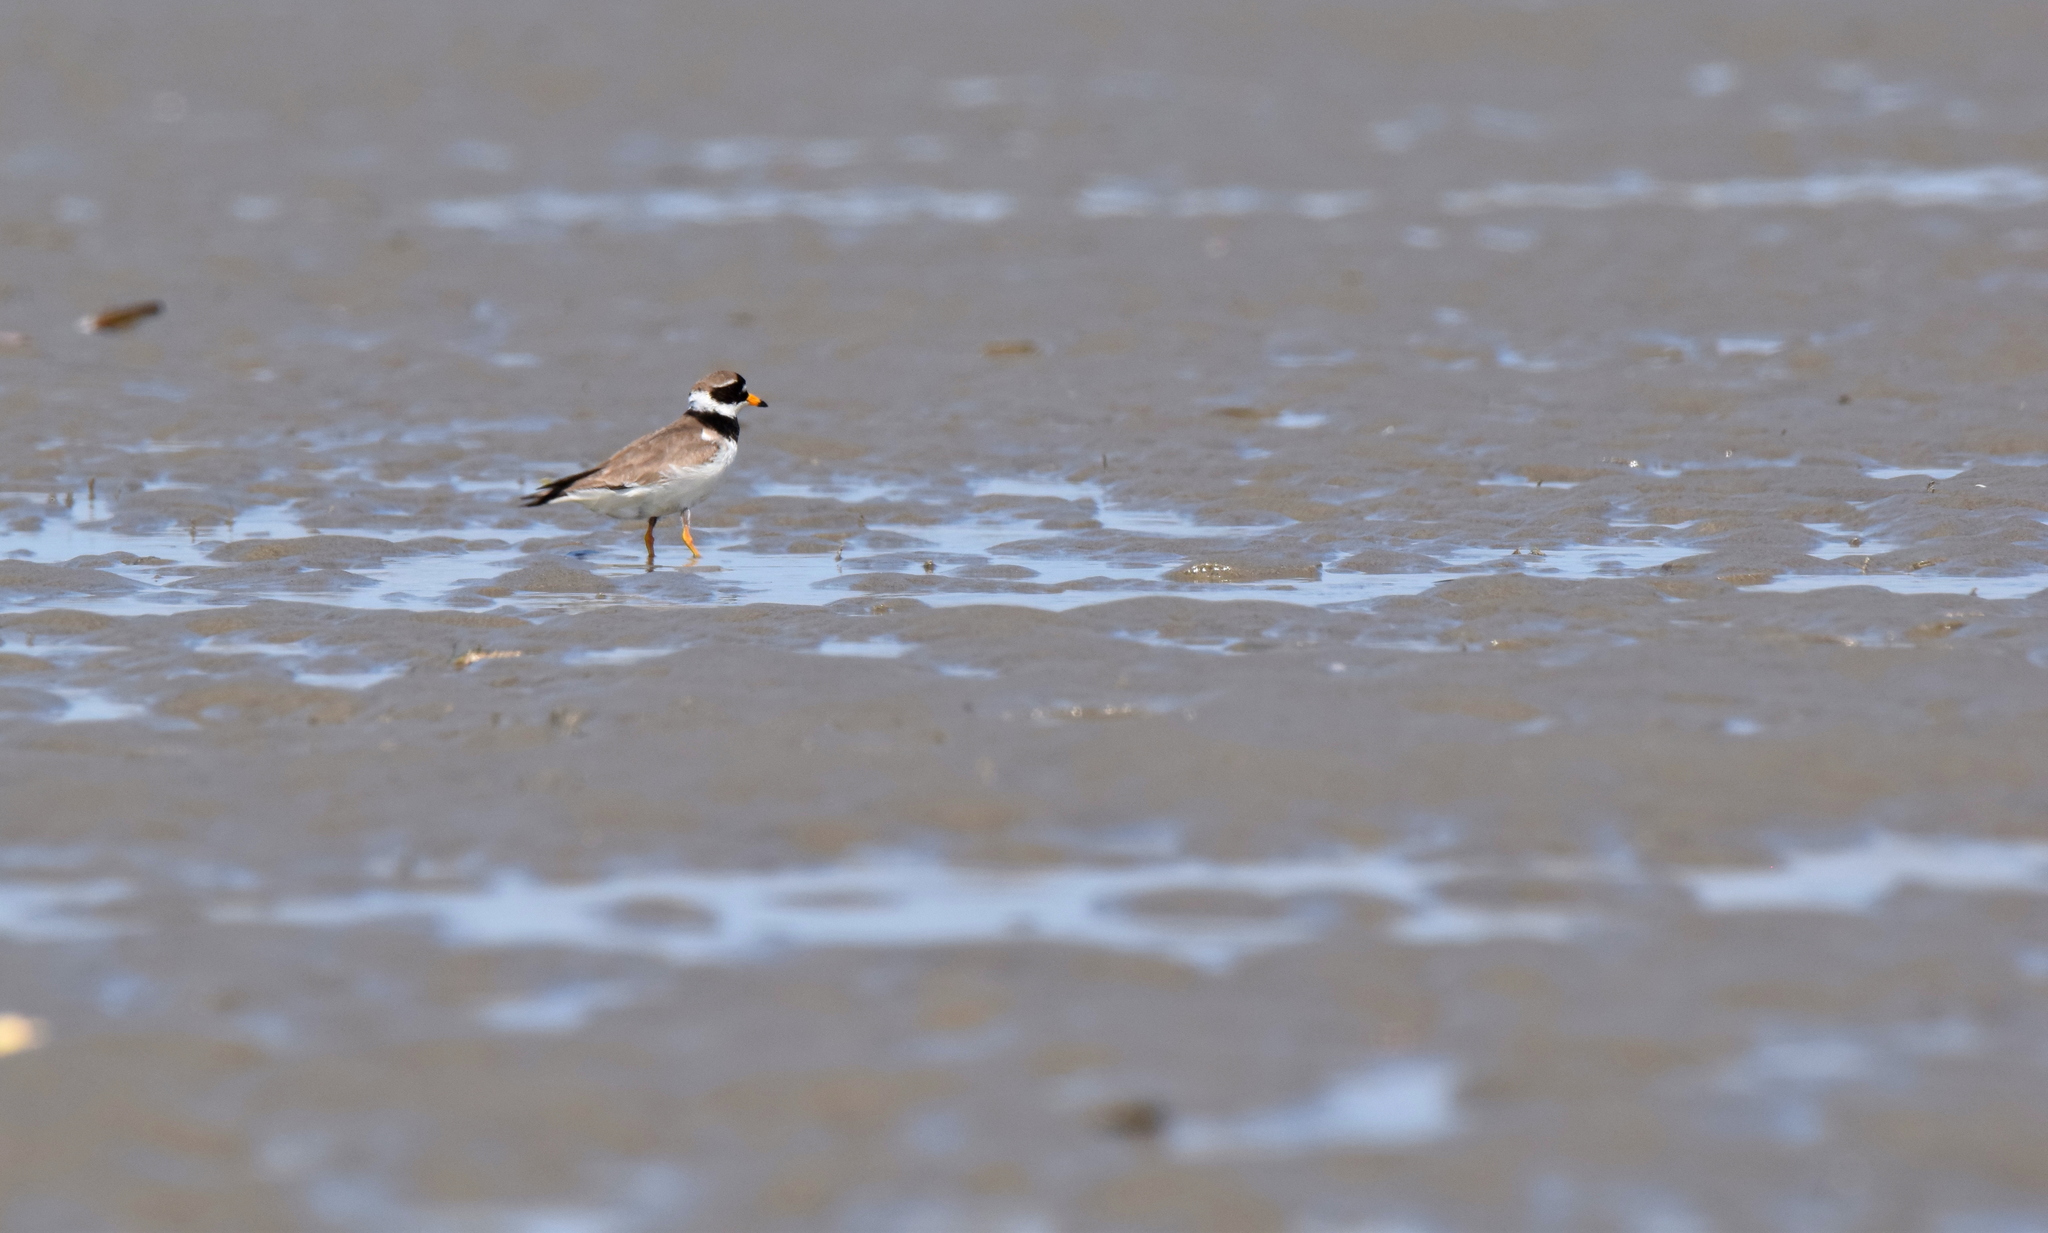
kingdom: Animalia
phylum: Chordata
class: Aves
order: Charadriiformes
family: Charadriidae
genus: Charadrius
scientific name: Charadrius hiaticula
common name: Common ringed plover
